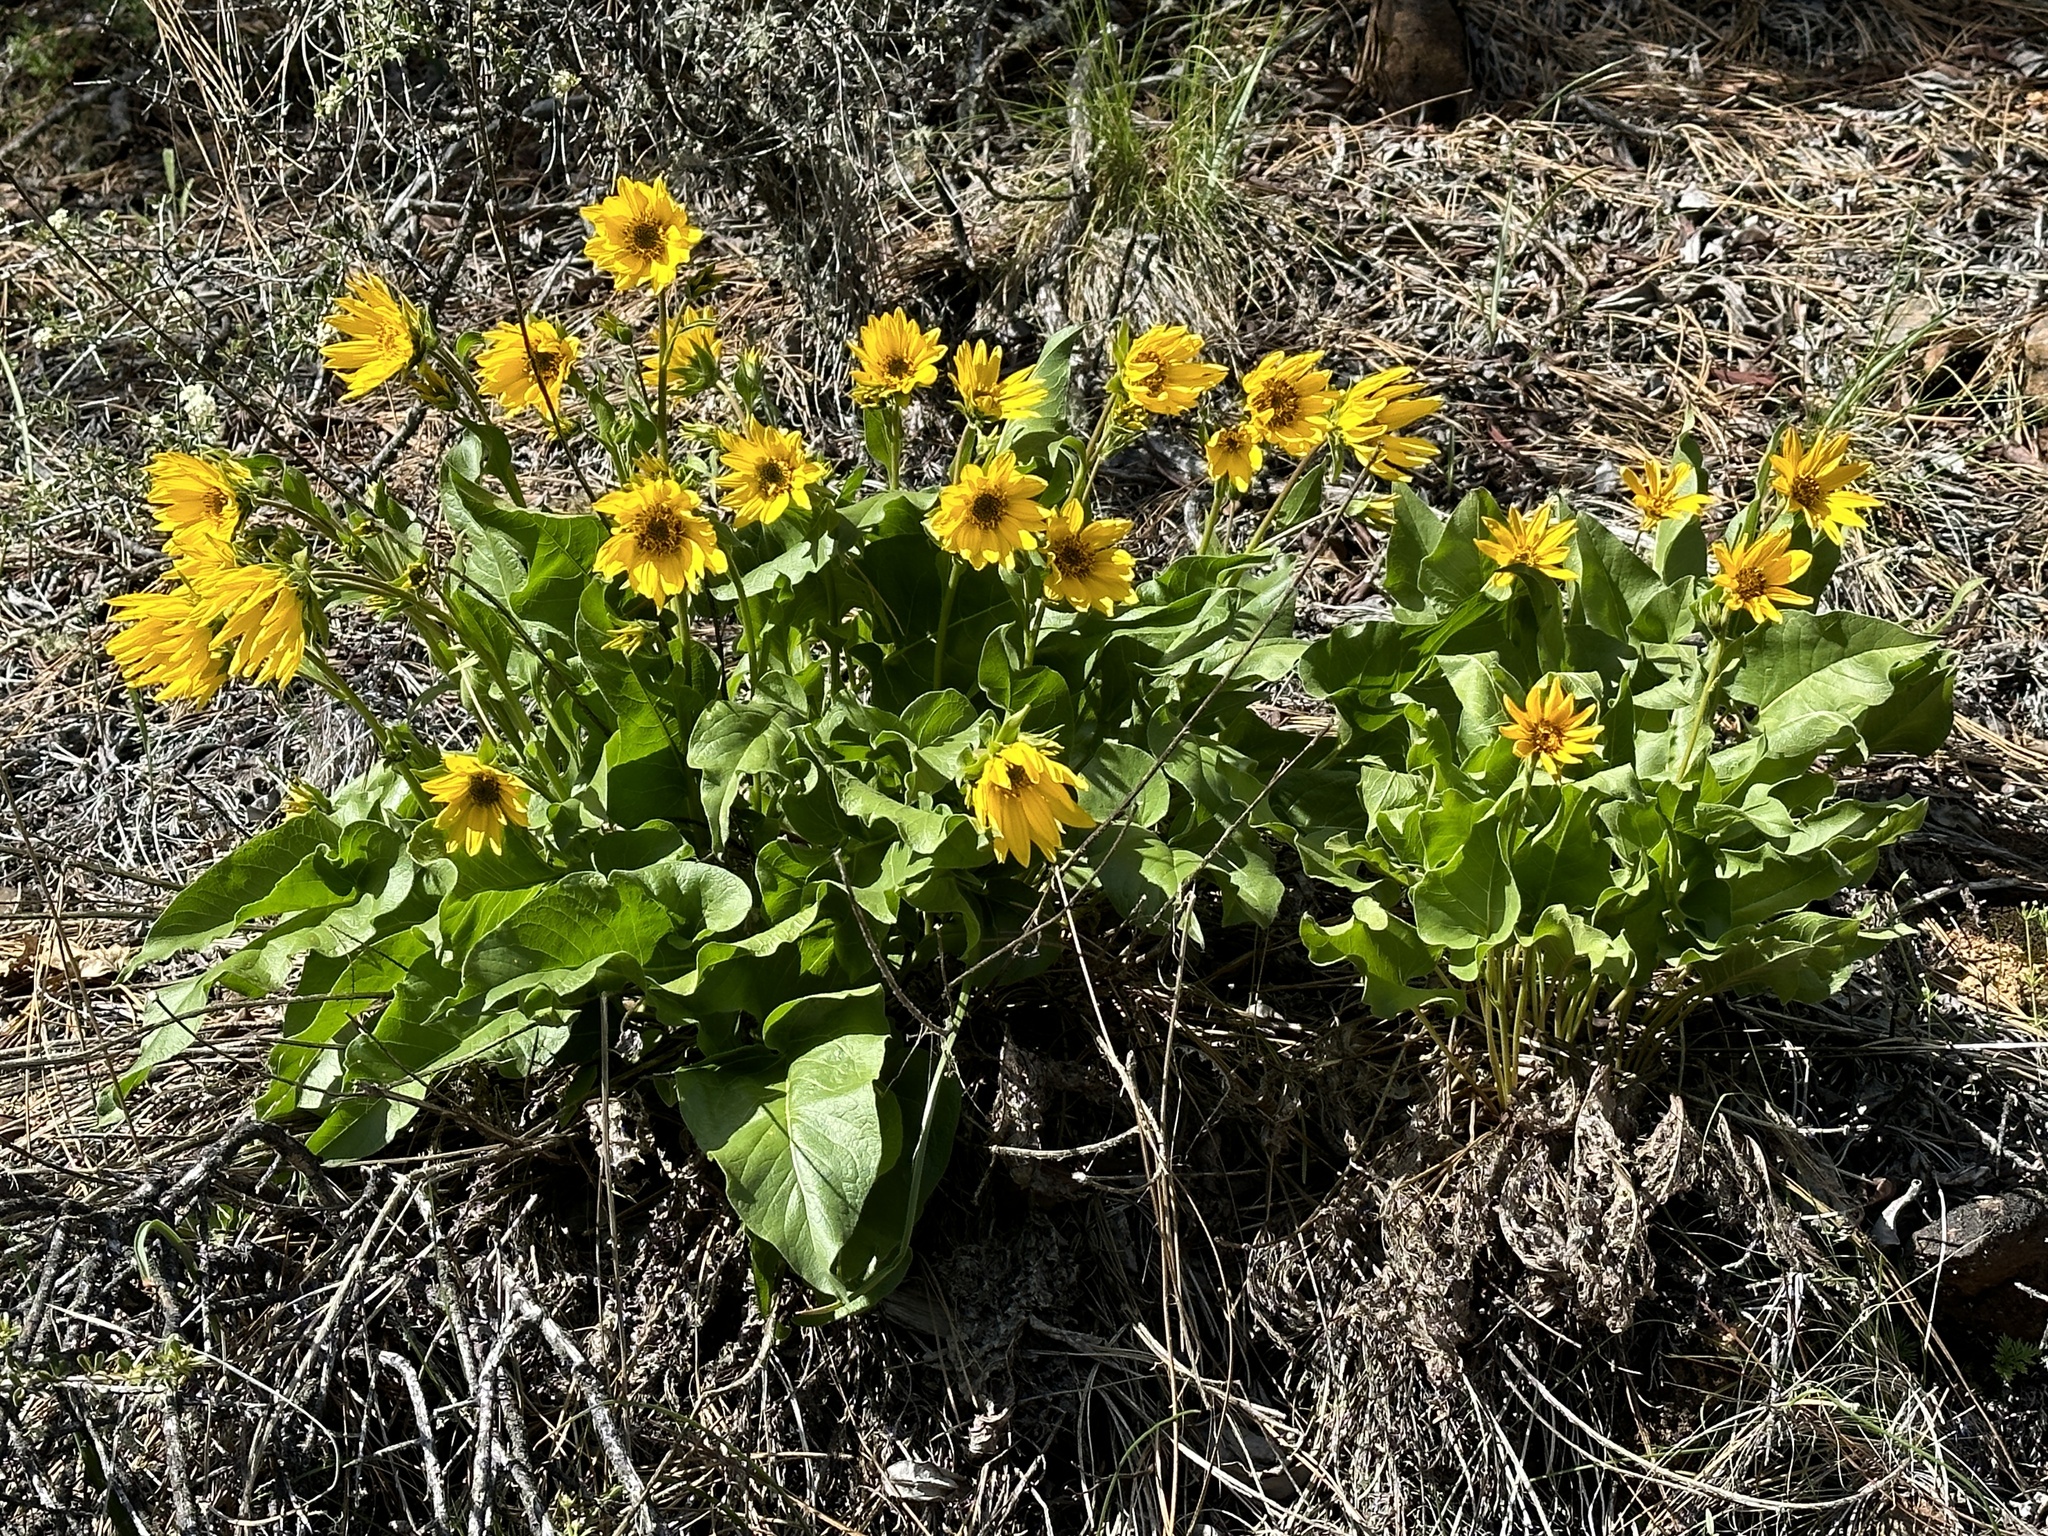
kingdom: Plantae
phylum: Tracheophyta
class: Magnoliopsida
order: Asterales
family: Asteraceae
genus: Balsamorhiza
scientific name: Balsamorhiza deltoidea
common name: Deltoid balsamroot
